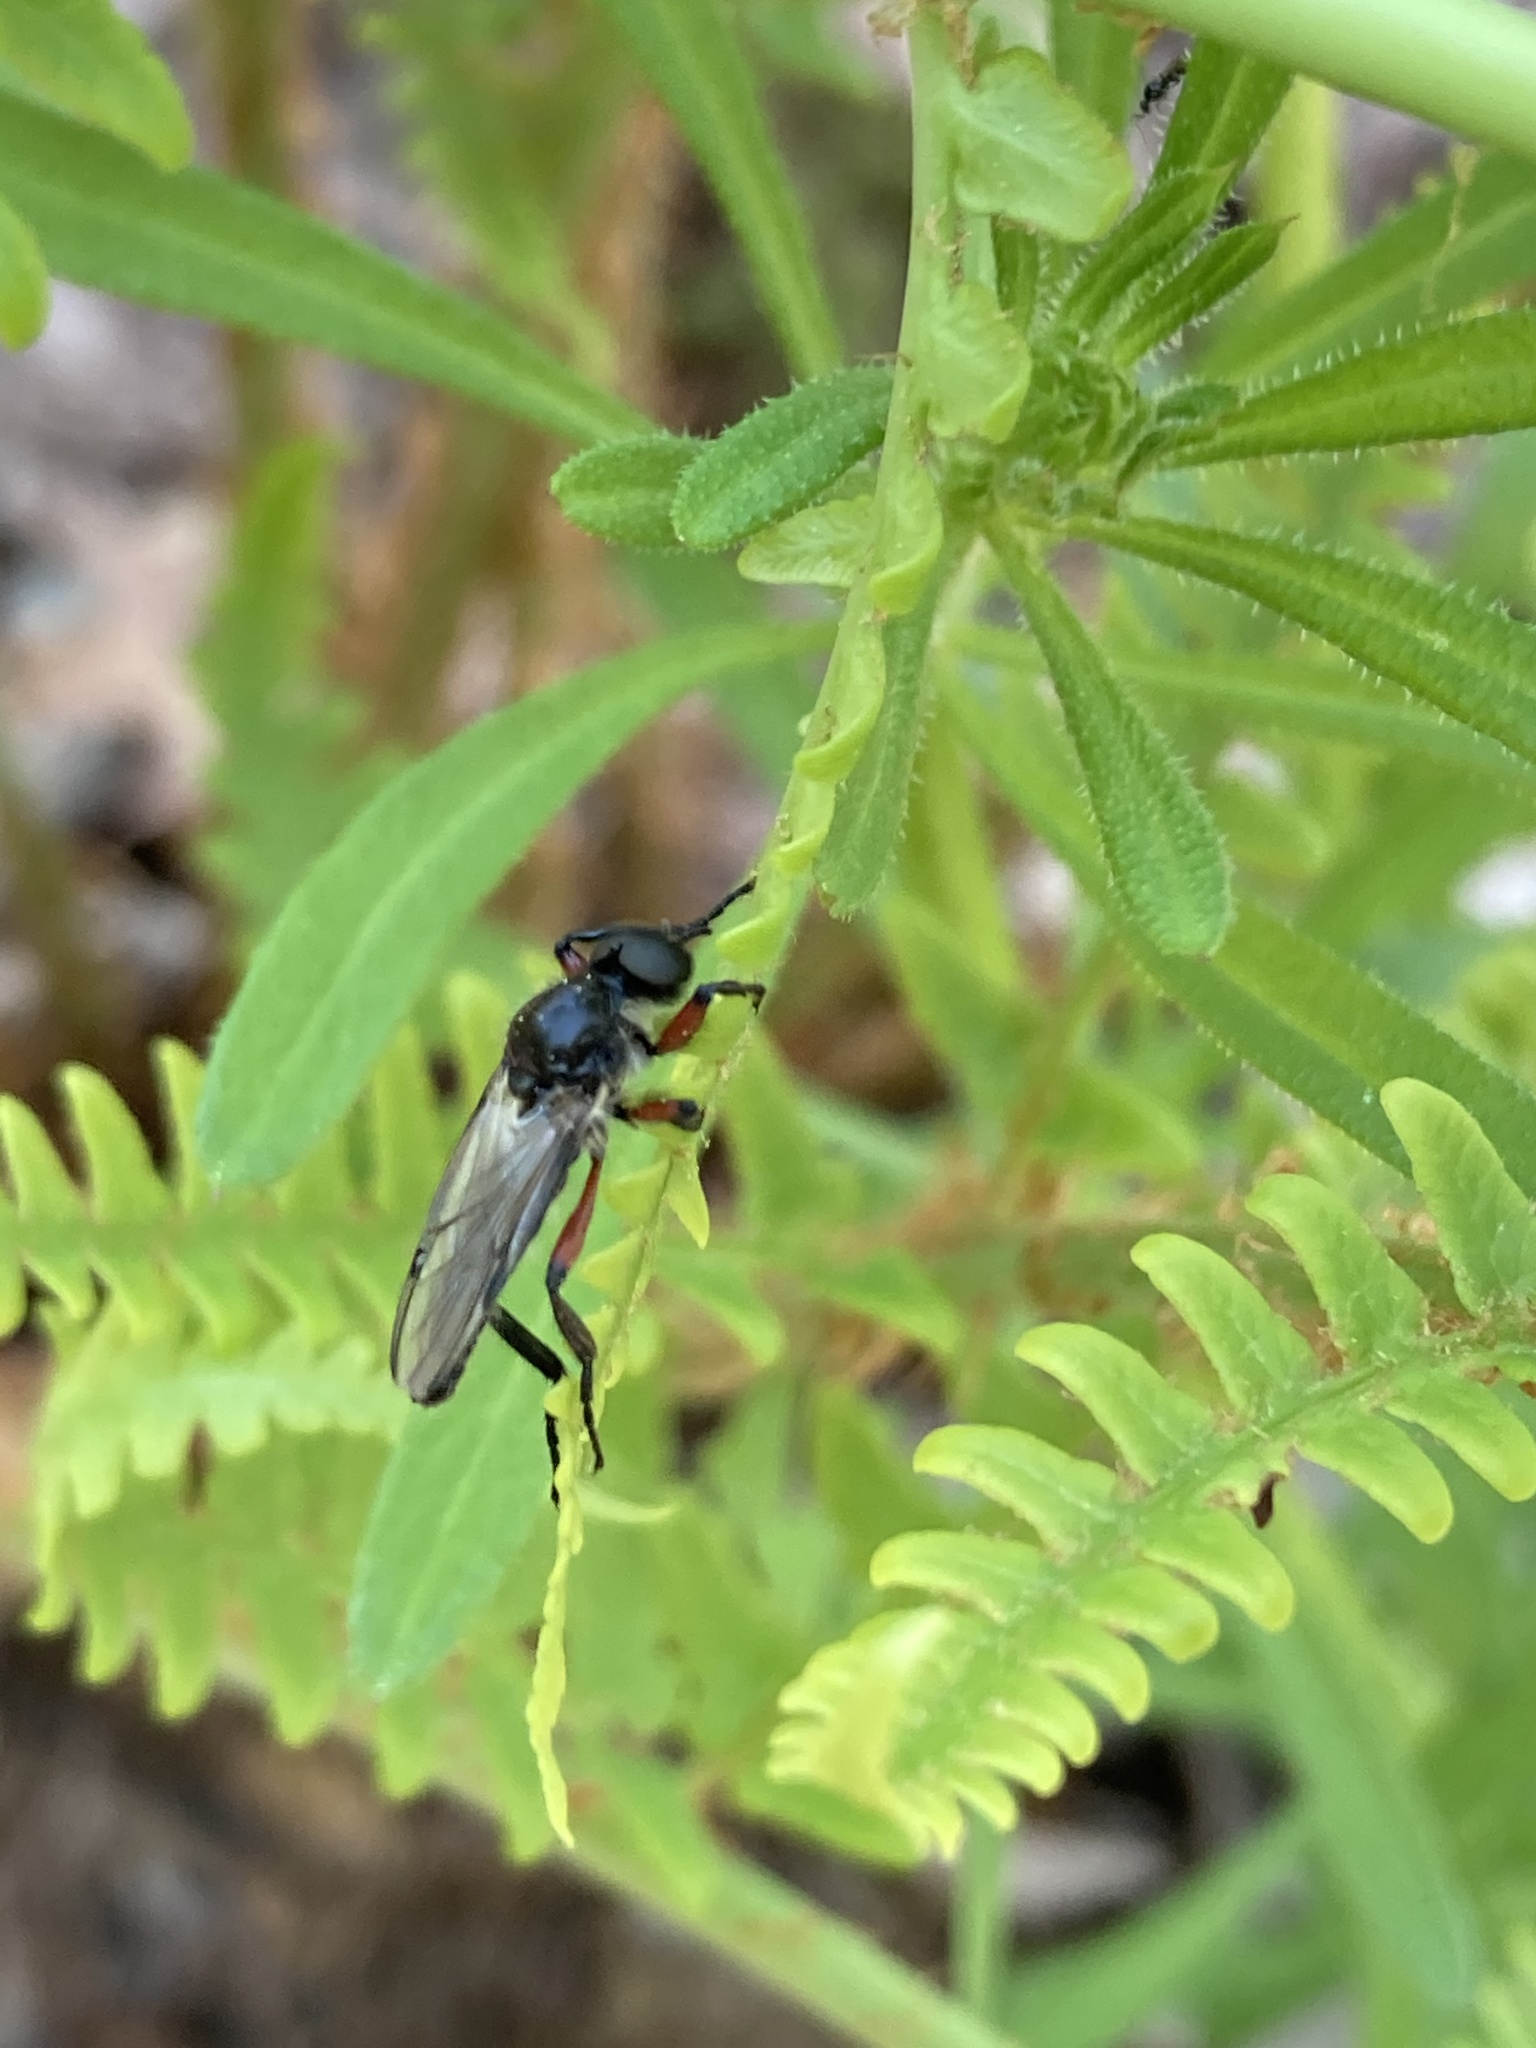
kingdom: Animalia
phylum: Arthropoda
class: Insecta
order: Diptera
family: Bibionidae
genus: Bibio
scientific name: Bibio femoratus
